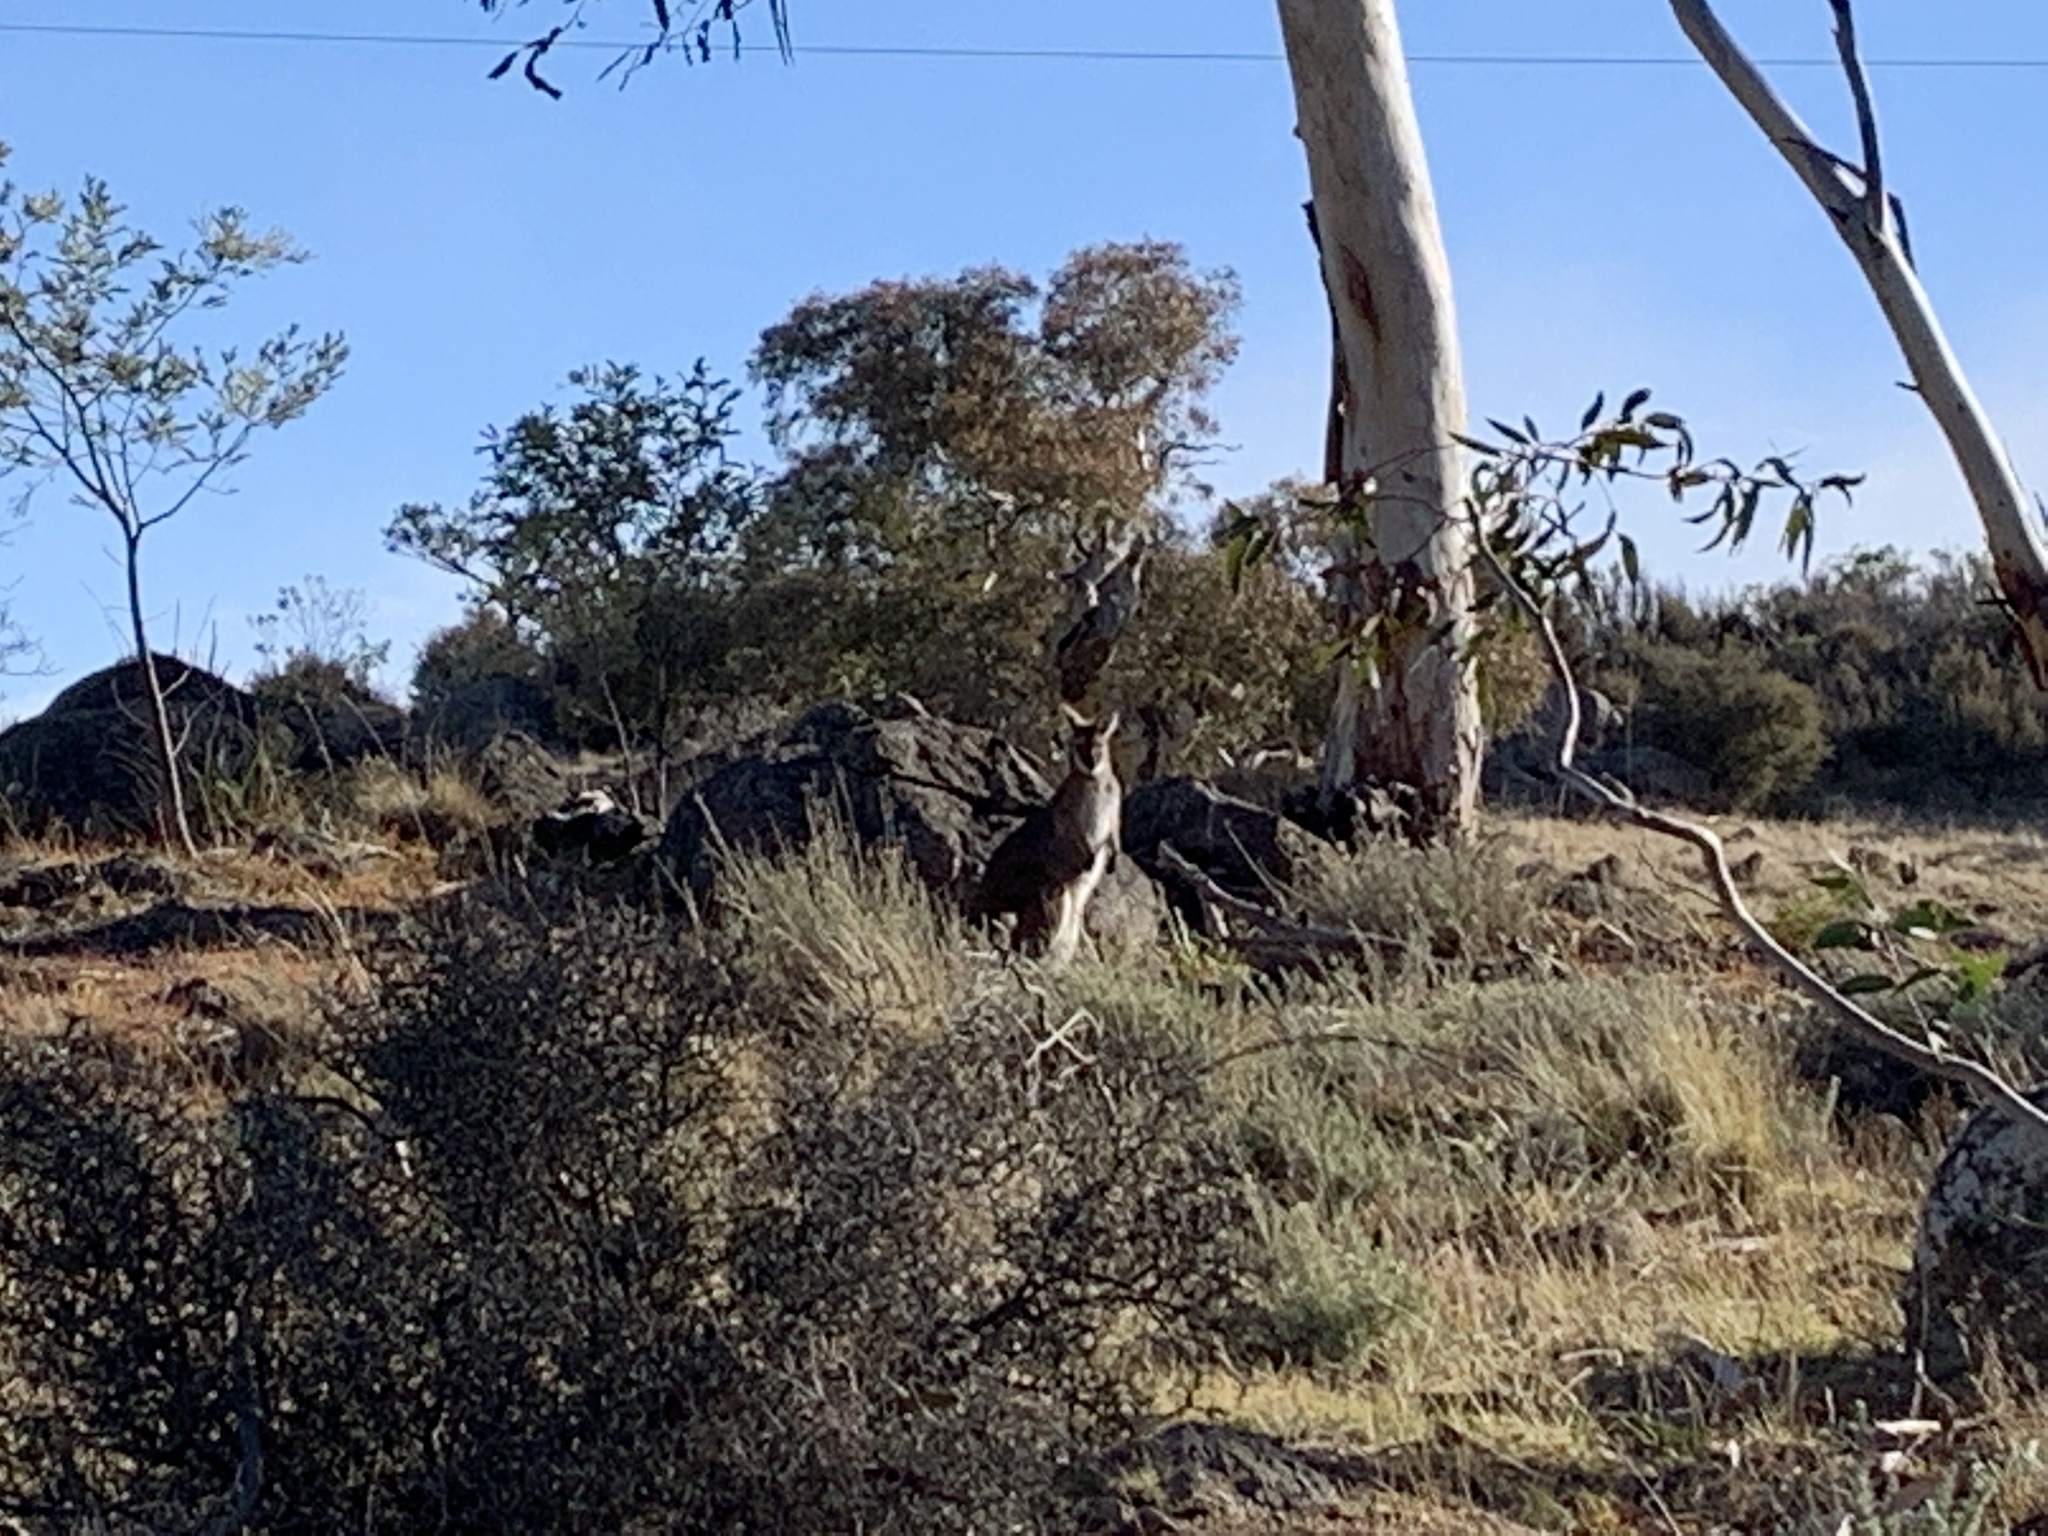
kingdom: Animalia
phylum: Chordata
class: Mammalia
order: Diprotodontia
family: Macropodidae
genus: Notamacropus
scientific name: Notamacropus rufogriseus
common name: Red-necked wallaby
